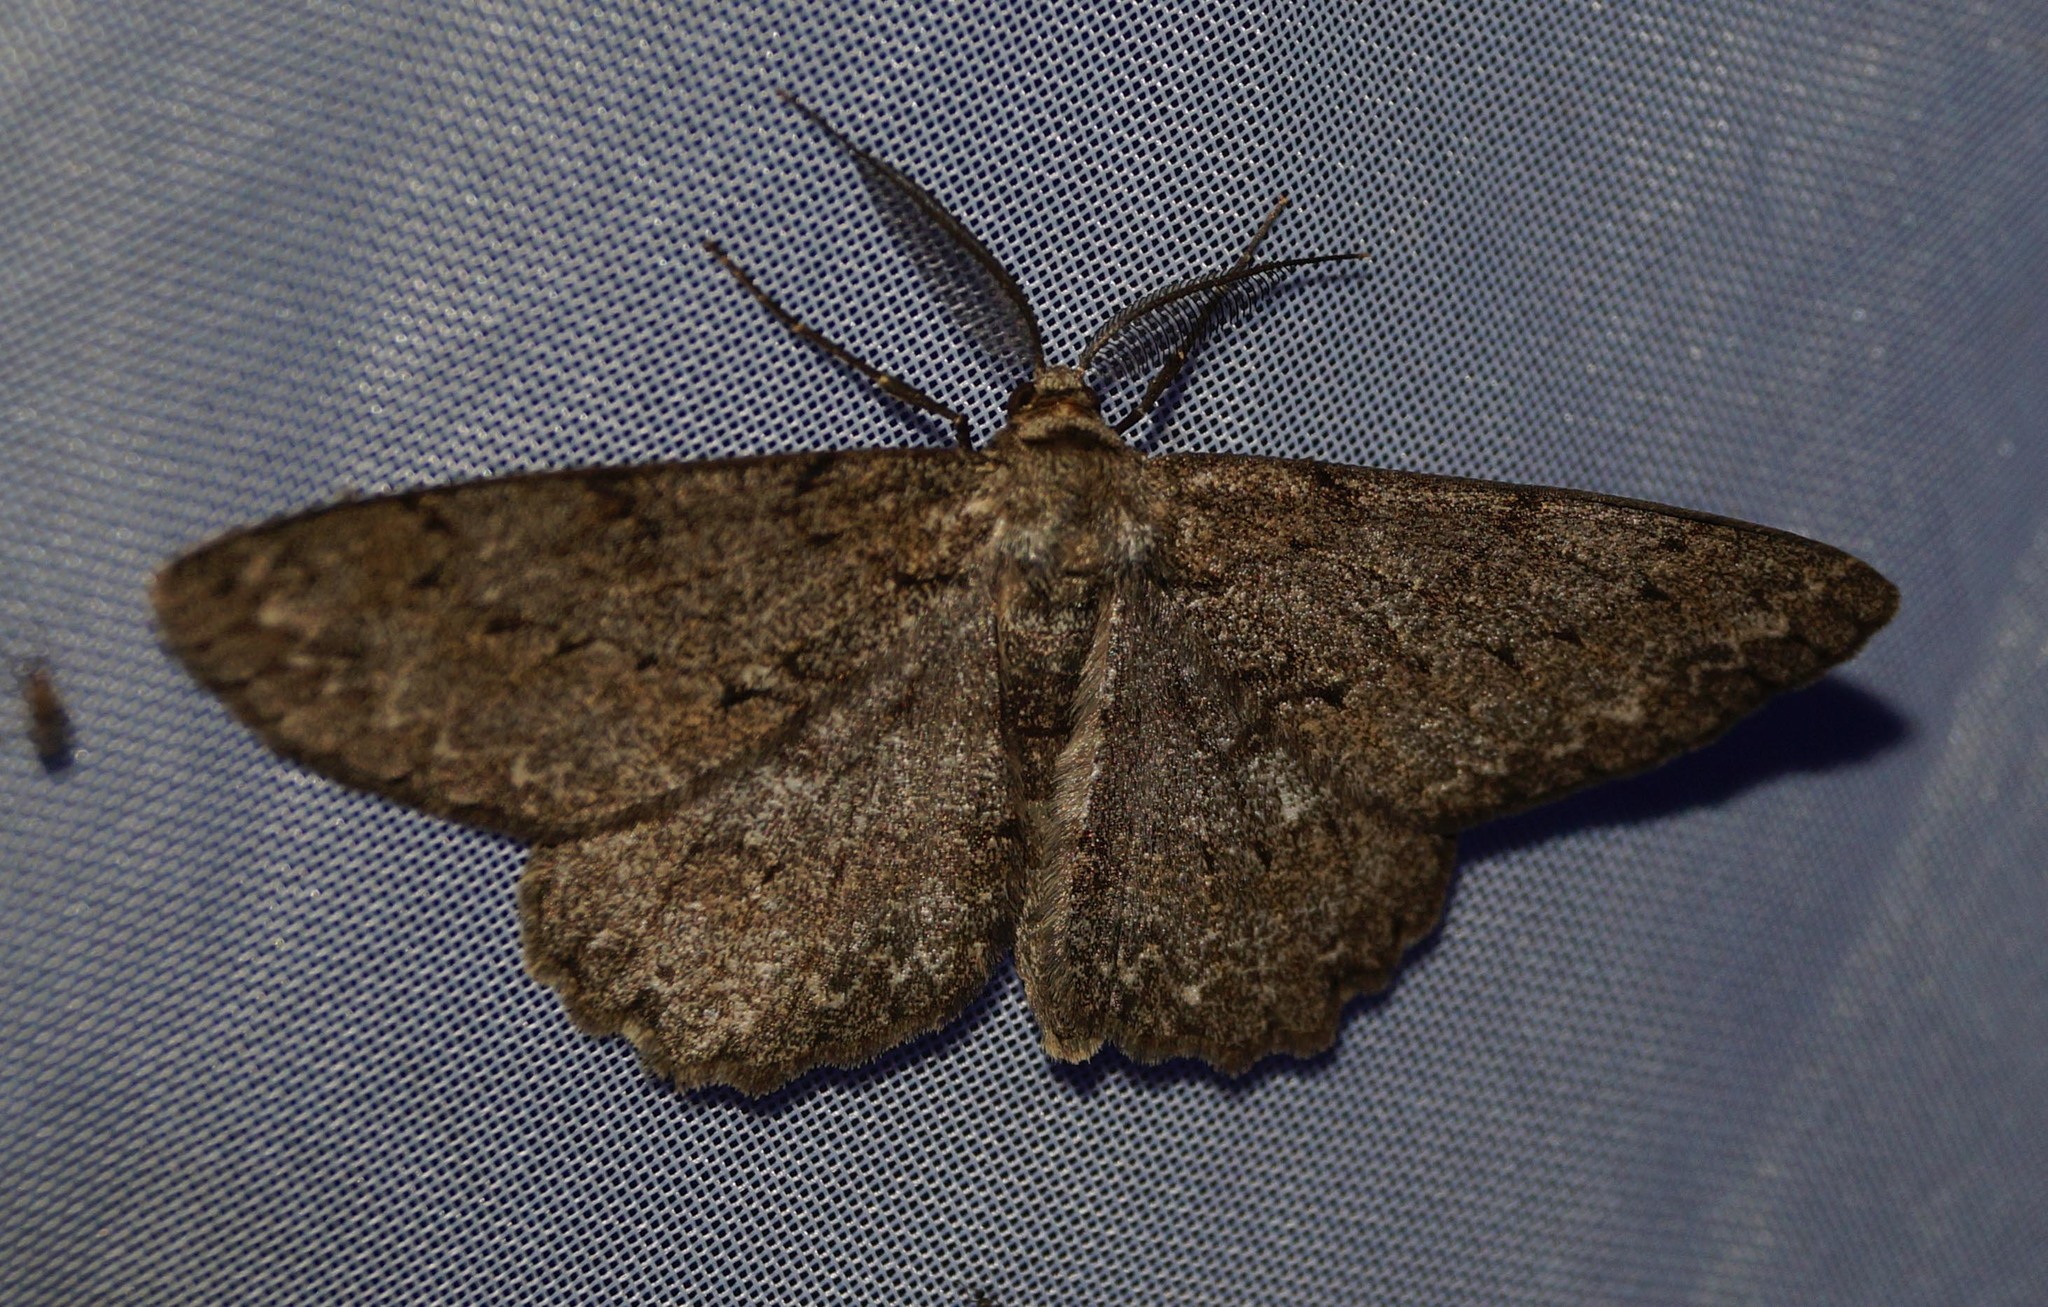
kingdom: Animalia
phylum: Arthropoda
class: Insecta
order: Lepidoptera
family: Geometridae
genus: Hypomecis
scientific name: Hypomecis punctinalis
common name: Pale oak beauty
